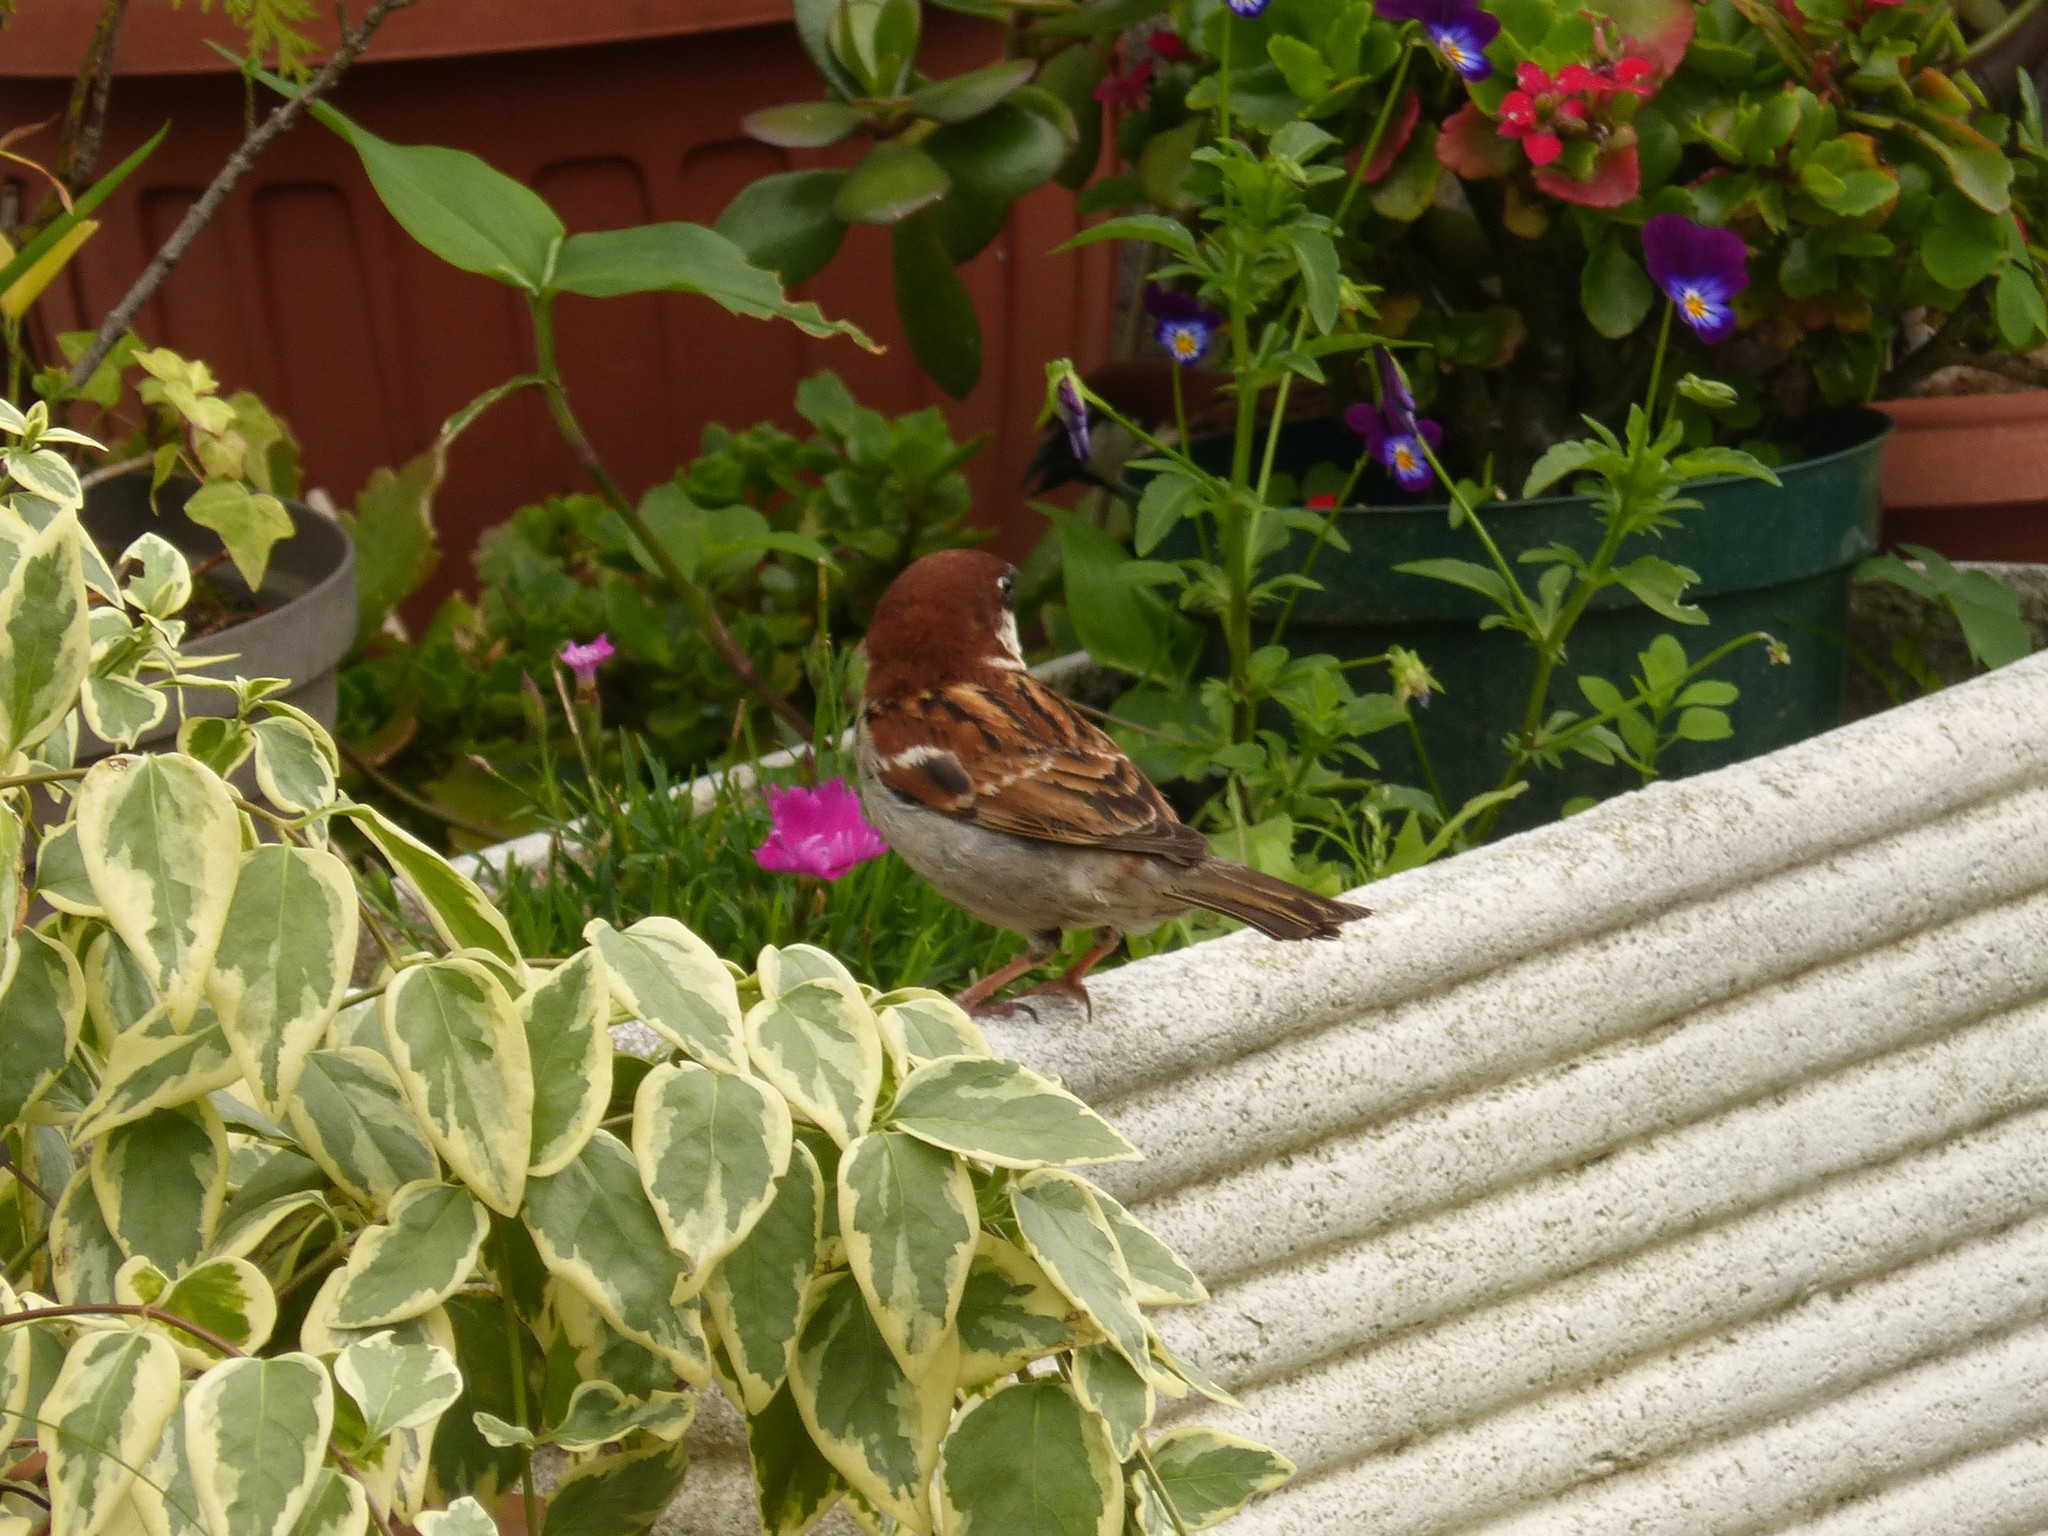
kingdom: Animalia
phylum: Chordata
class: Aves
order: Passeriformes
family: Passeridae
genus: Passer
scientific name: Passer italiae
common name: Italian sparrow
